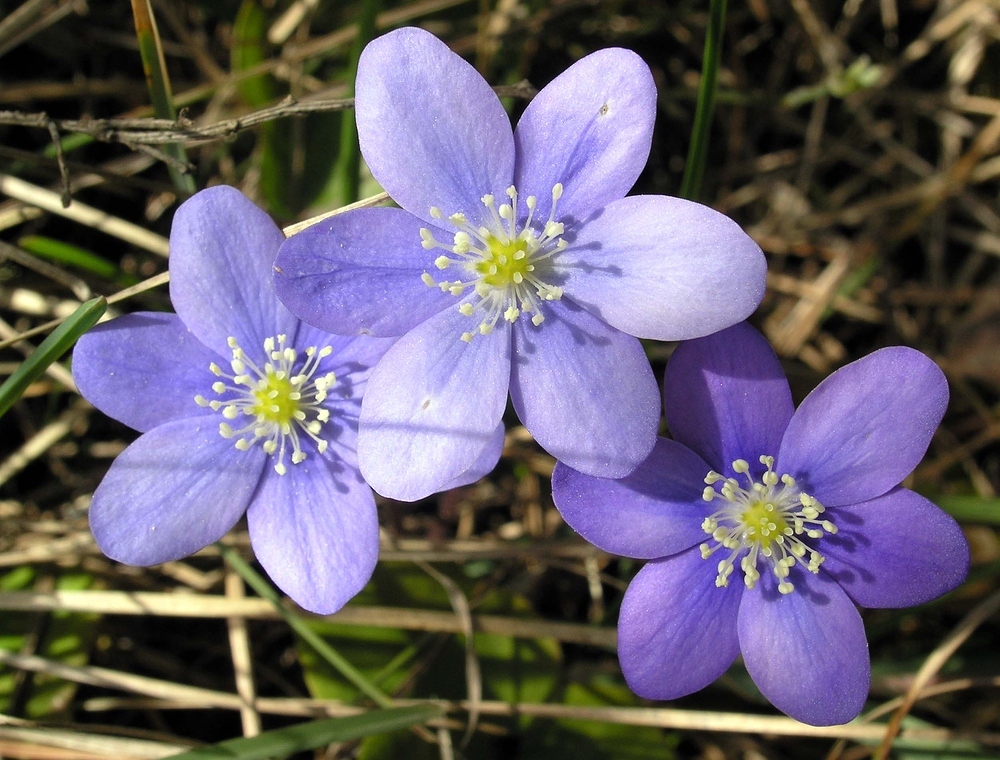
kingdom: Plantae
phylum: Tracheophyta
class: Magnoliopsida
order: Ranunculales
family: Ranunculaceae
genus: Hepatica
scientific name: Hepatica nobilis
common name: Liverleaf
